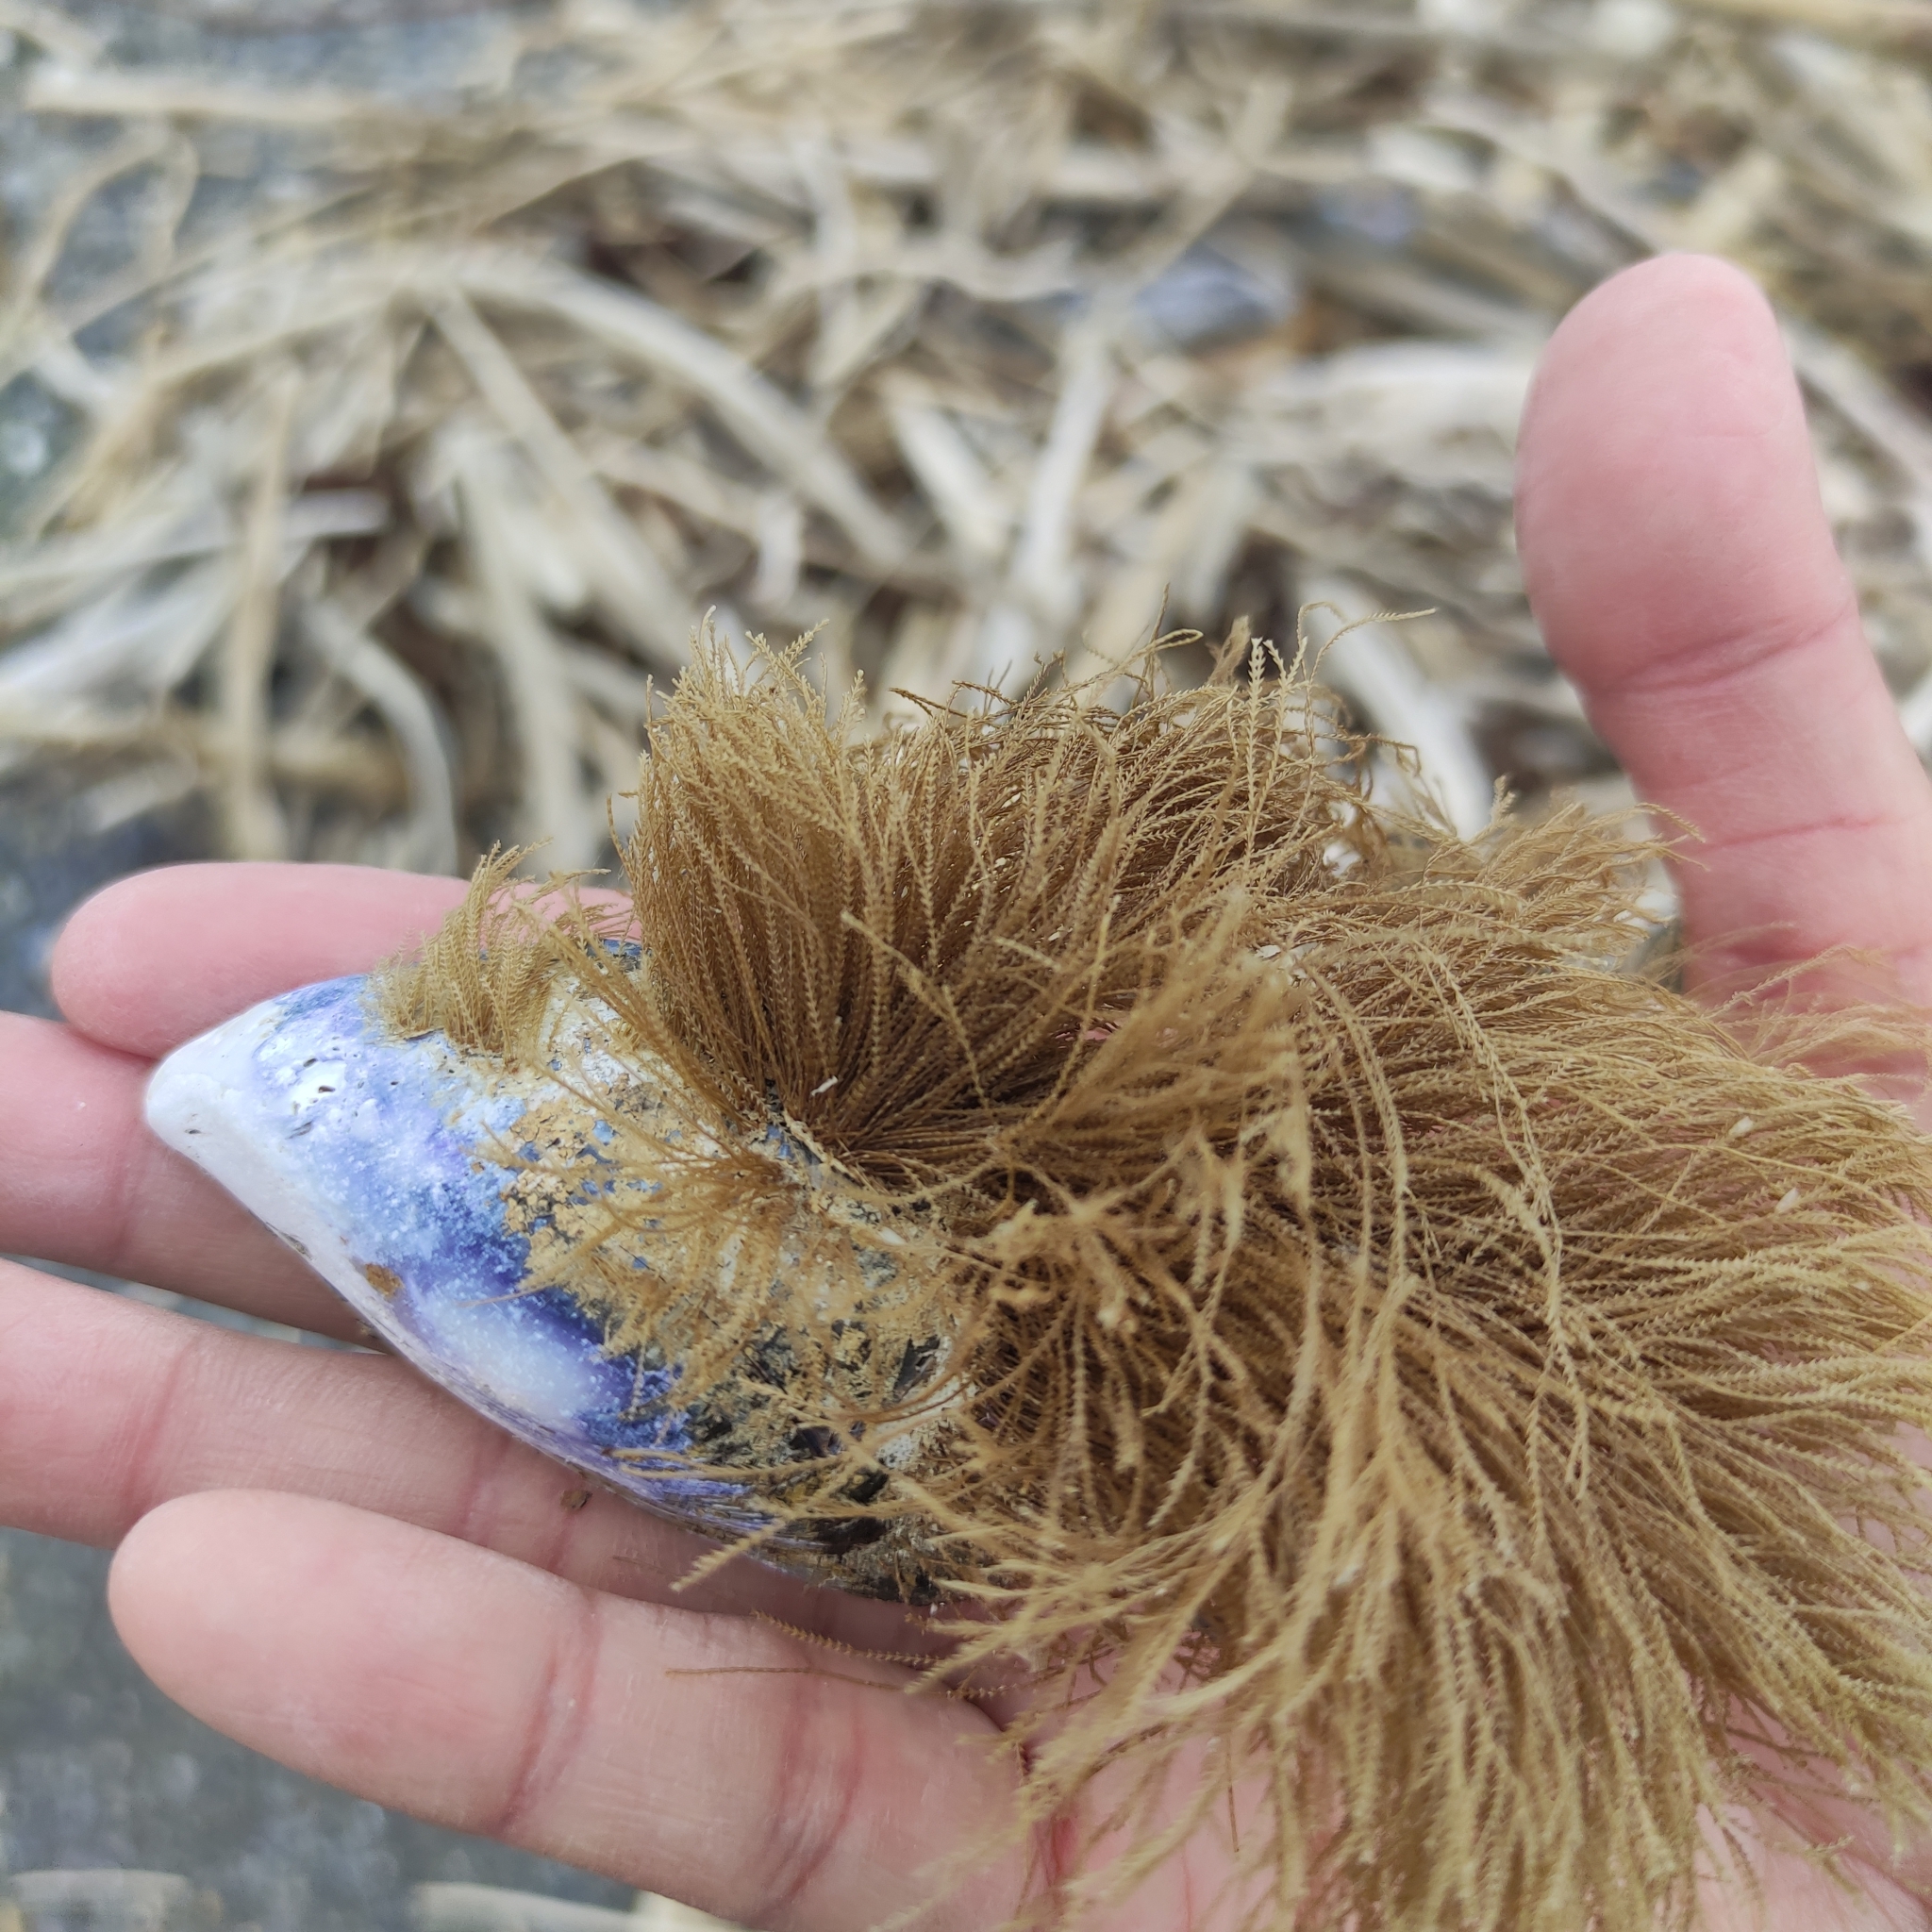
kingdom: Animalia
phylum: Cnidaria
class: Hydrozoa
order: Leptothecata
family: Sertulariidae
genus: Amphisbetia
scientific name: Amphisbetia bispinosa
